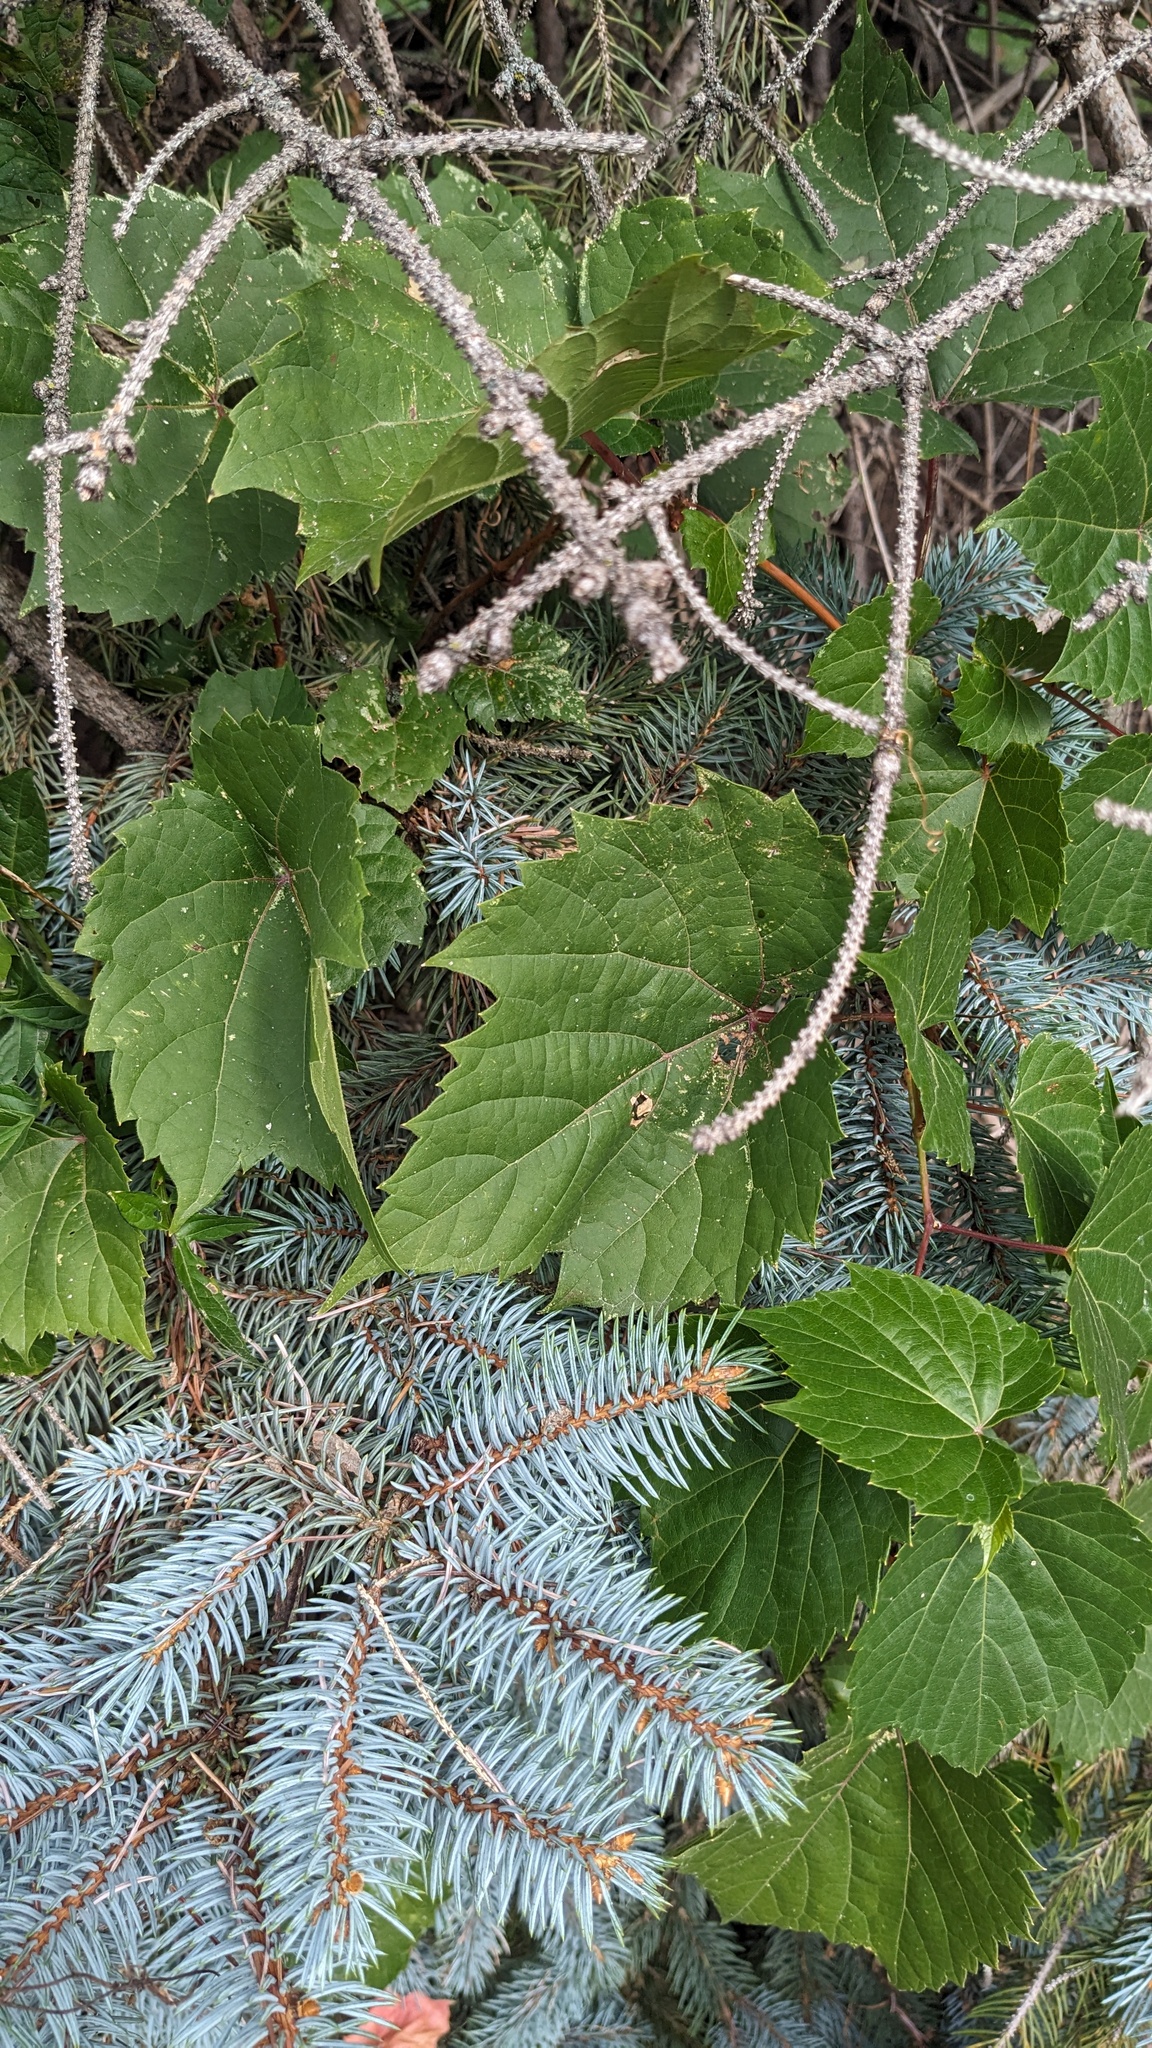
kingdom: Plantae
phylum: Tracheophyta
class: Magnoliopsida
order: Vitales
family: Vitaceae
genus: Vitis
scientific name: Vitis riparia
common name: Frost grape
